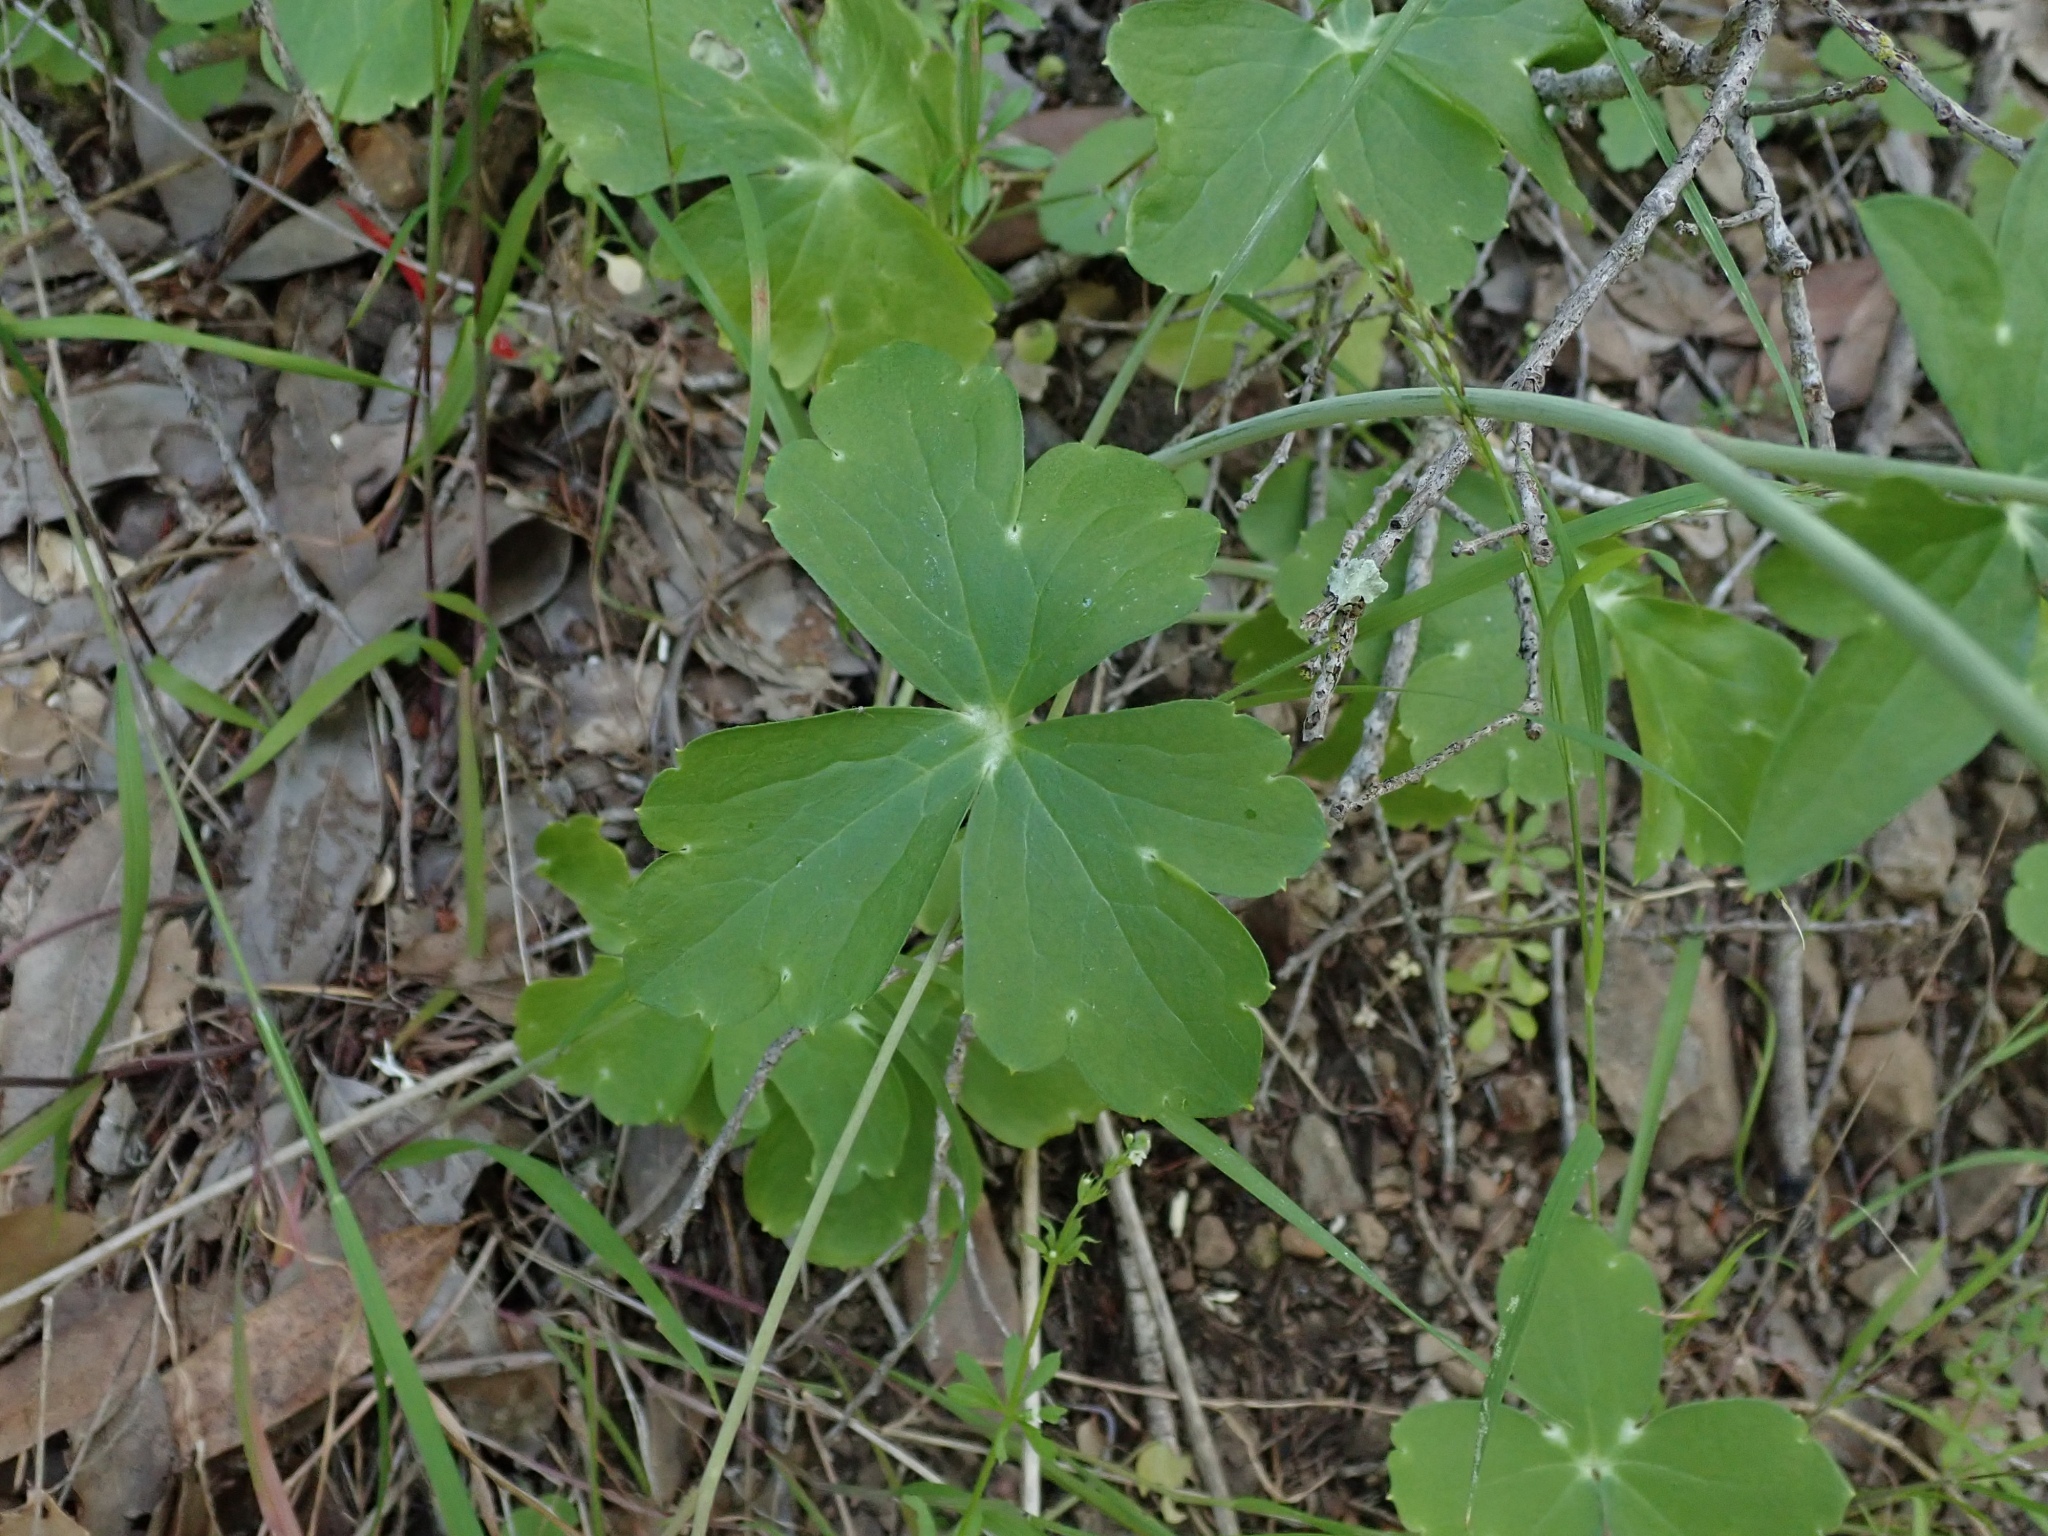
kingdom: Plantae
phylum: Tracheophyta
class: Magnoliopsida
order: Ranunculales
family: Ranunculaceae
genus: Delphinium
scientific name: Delphinium nudicaule
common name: Red larkspur
